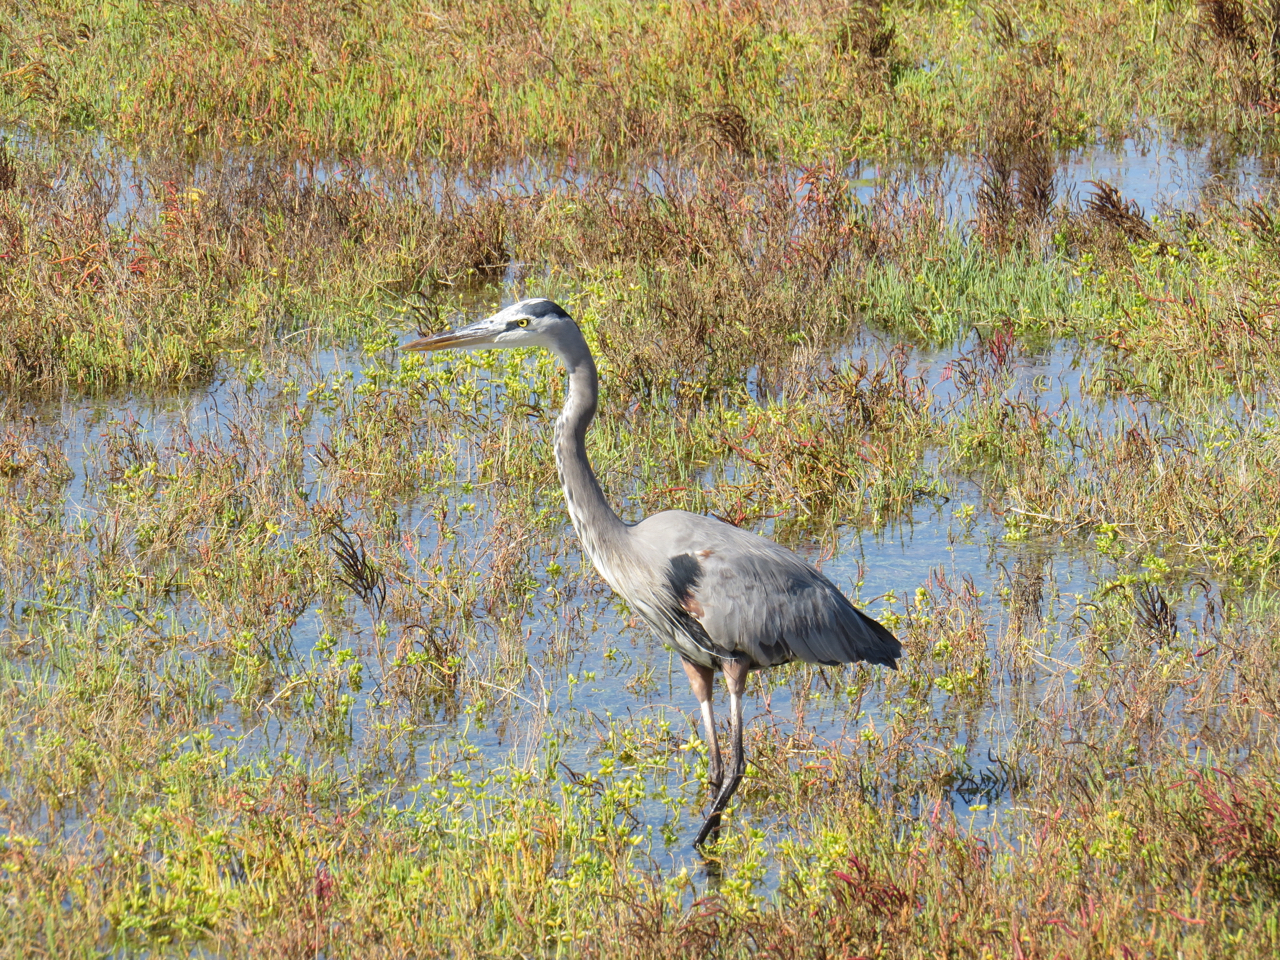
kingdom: Animalia
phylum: Chordata
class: Aves
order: Pelecaniformes
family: Ardeidae
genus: Ardea
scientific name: Ardea herodias
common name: Great blue heron
